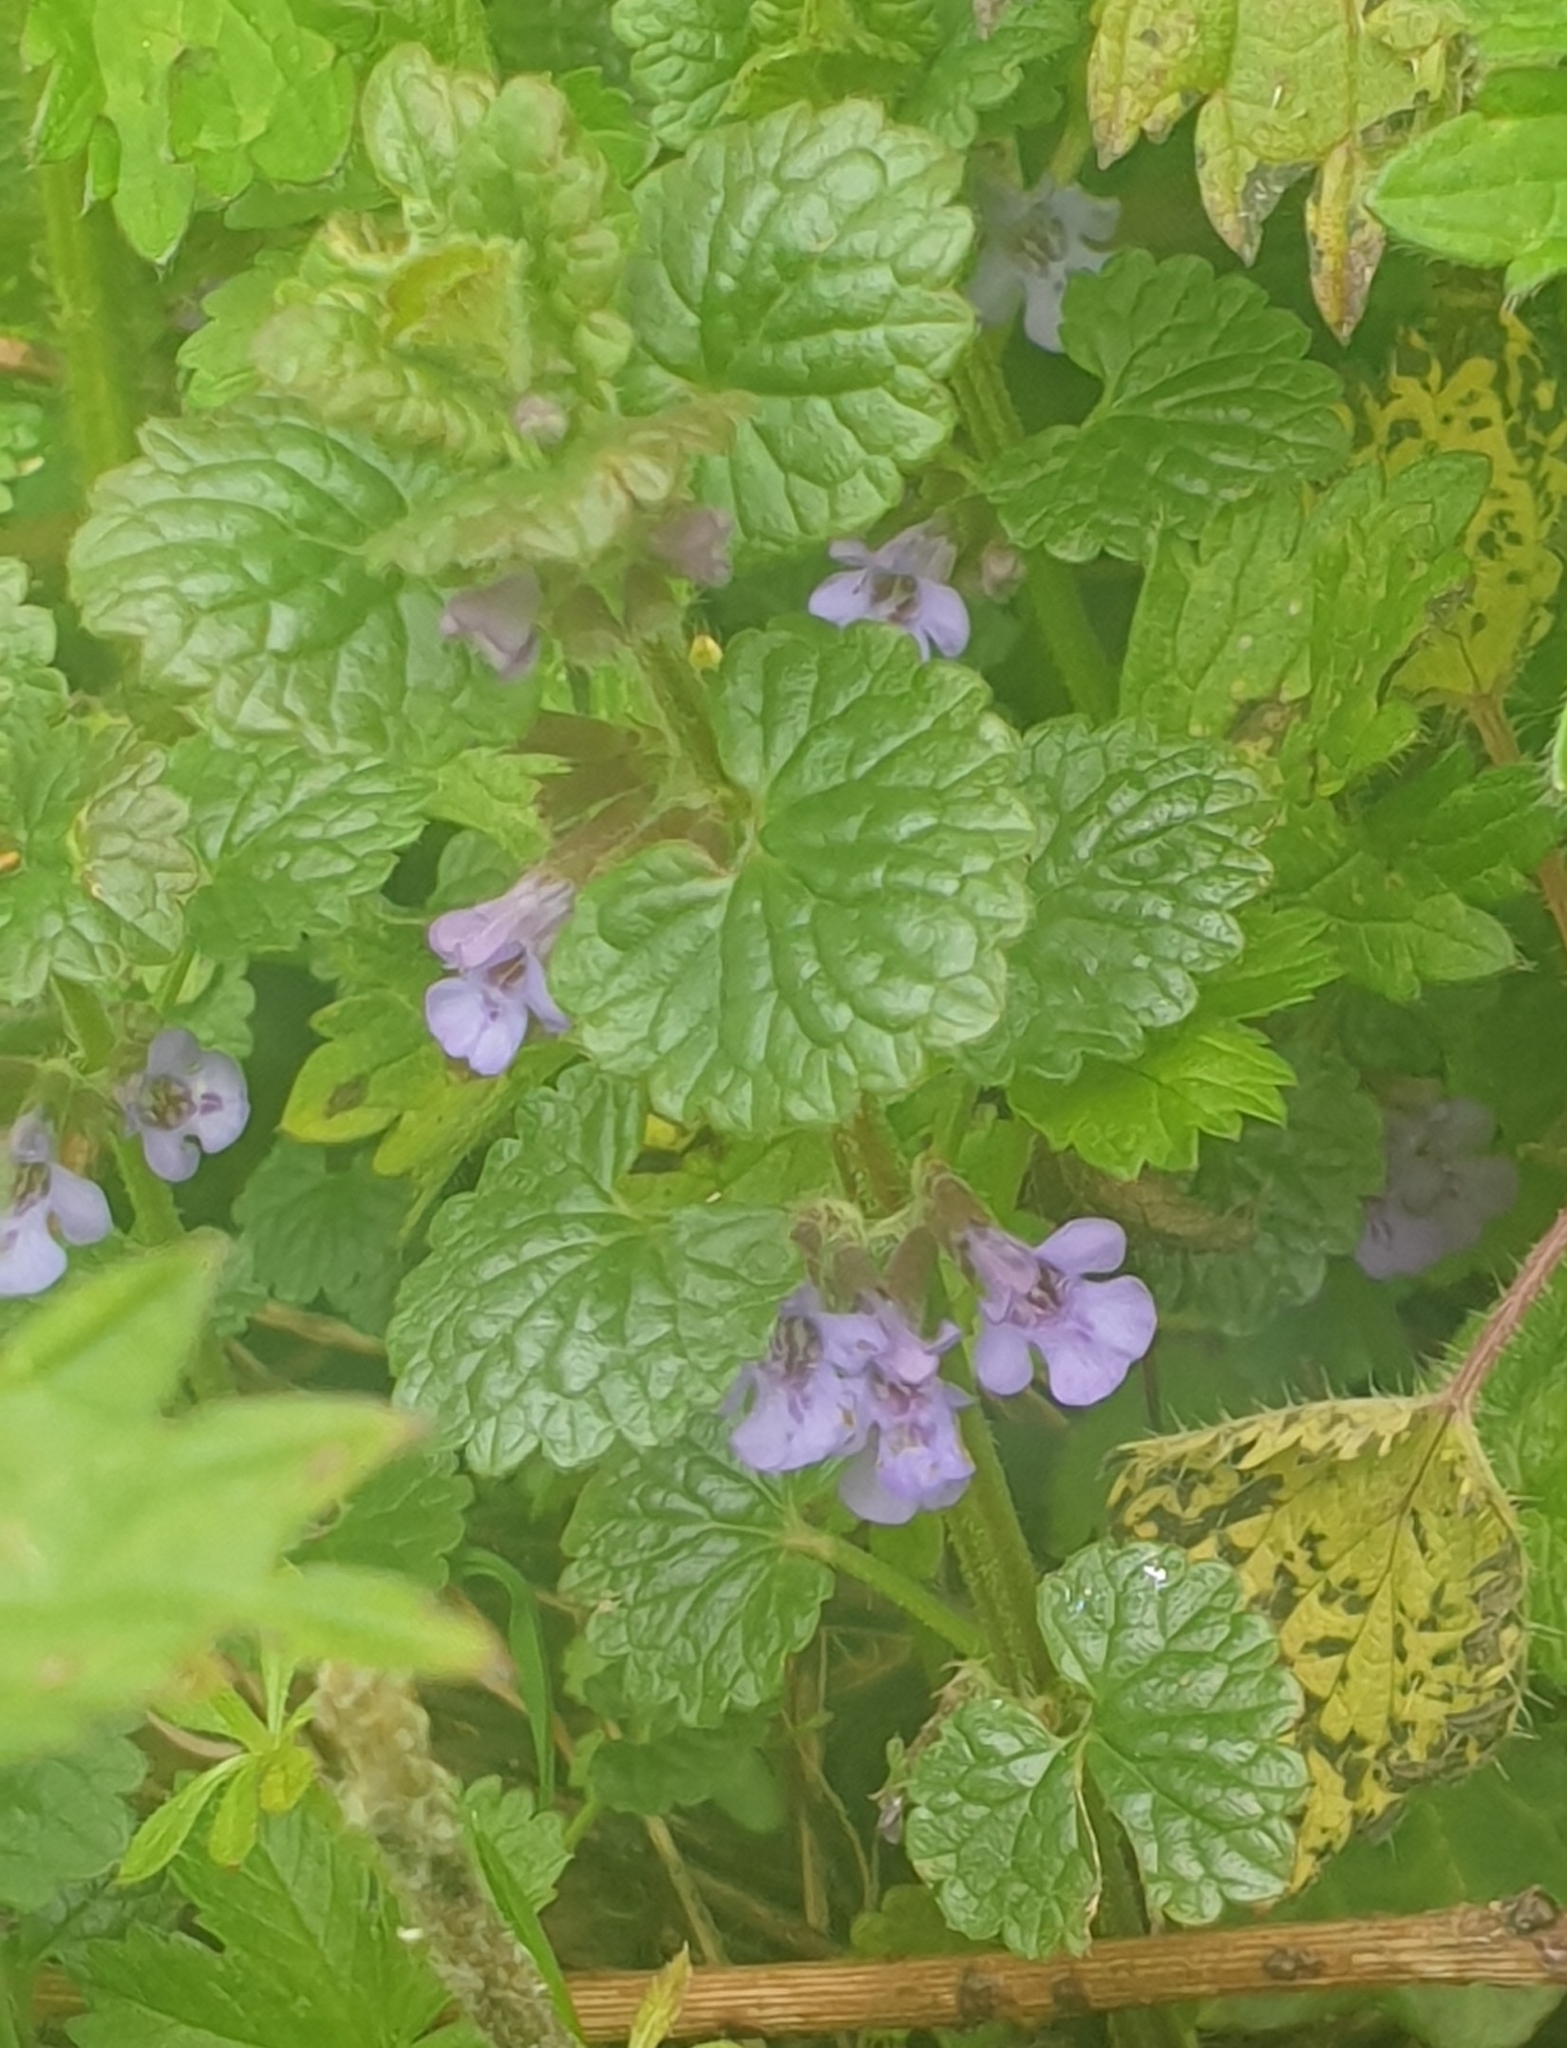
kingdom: Plantae
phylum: Tracheophyta
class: Magnoliopsida
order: Lamiales
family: Lamiaceae
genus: Glechoma
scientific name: Glechoma hederacea
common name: Ground ivy
